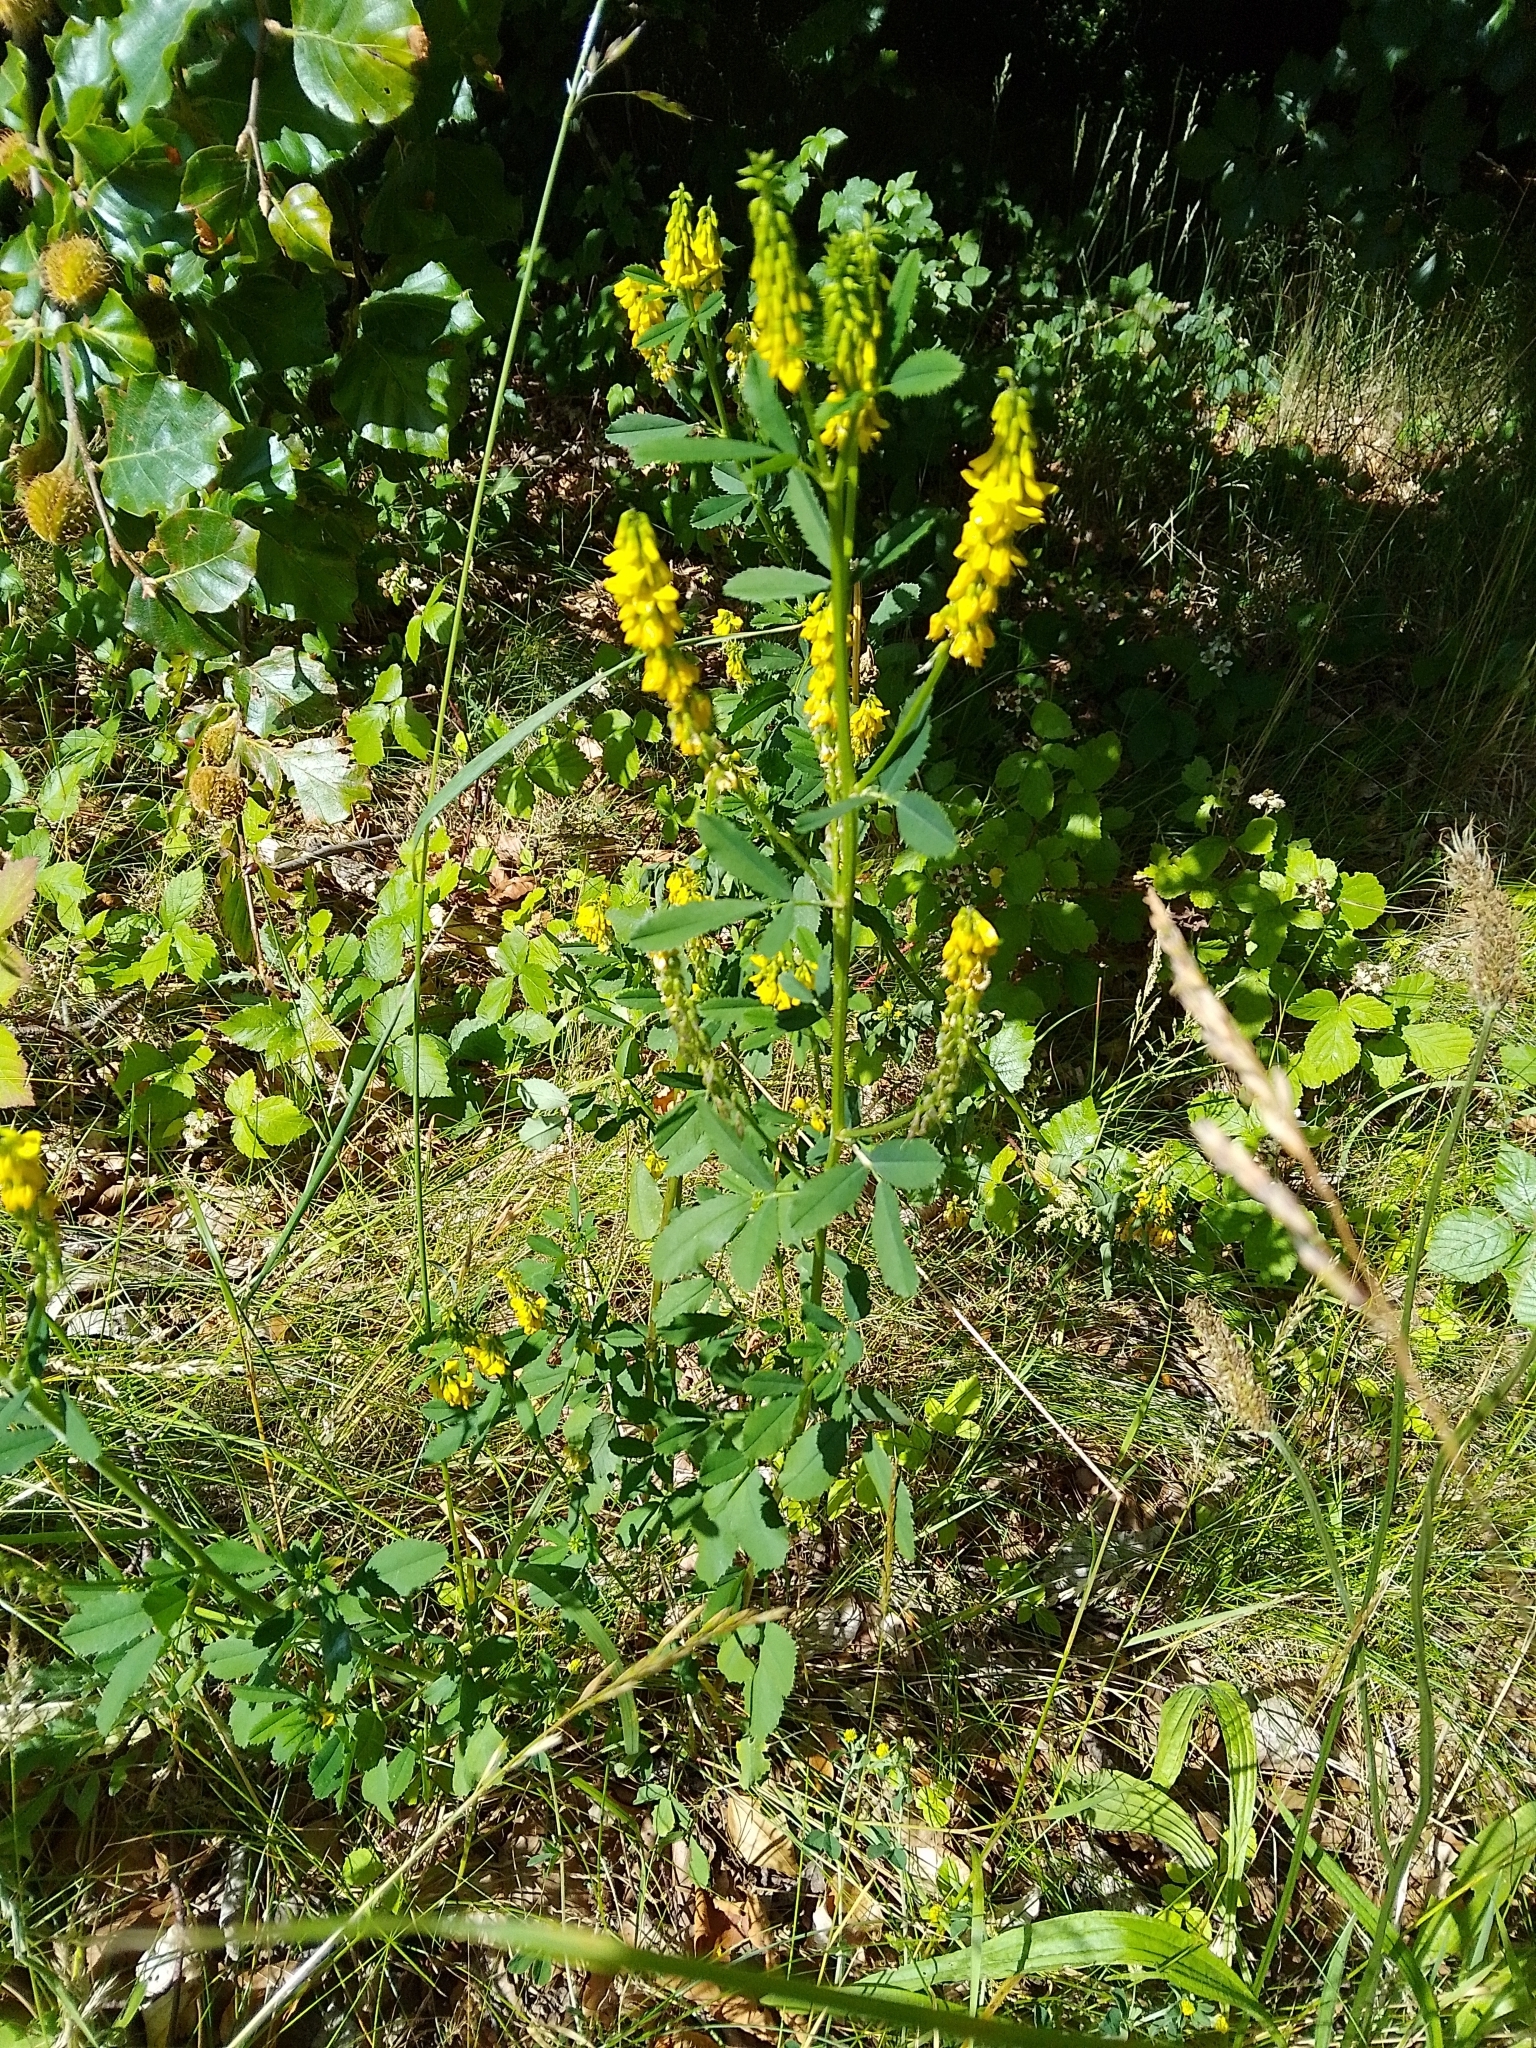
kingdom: Plantae
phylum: Tracheophyta
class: Magnoliopsida
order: Fabales
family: Fabaceae
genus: Melilotus
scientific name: Melilotus officinalis
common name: Sweetclover
